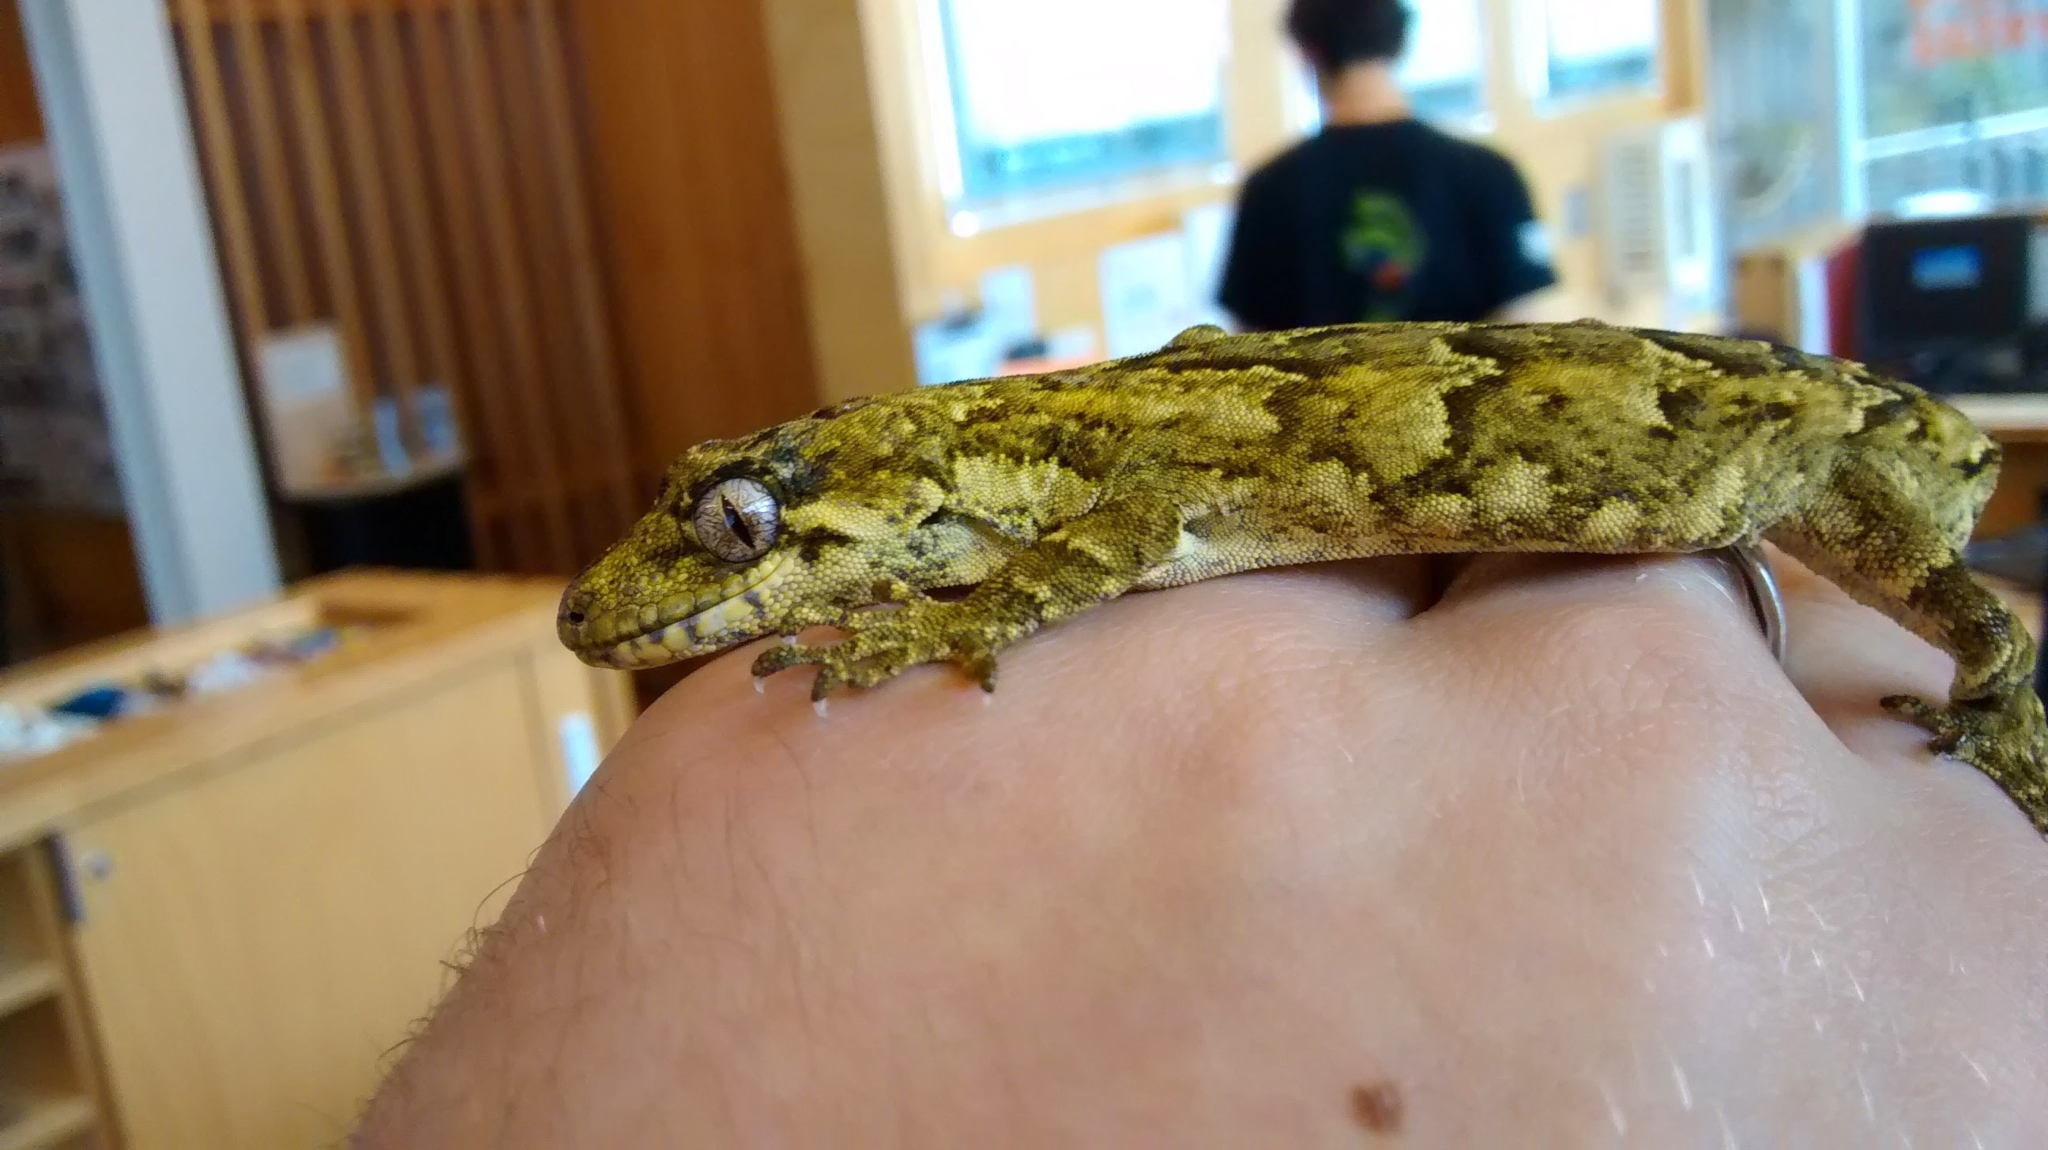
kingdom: Animalia
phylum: Chordata
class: Squamata
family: Diplodactylidae
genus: Mokopirirakau
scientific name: Mokopirirakau
